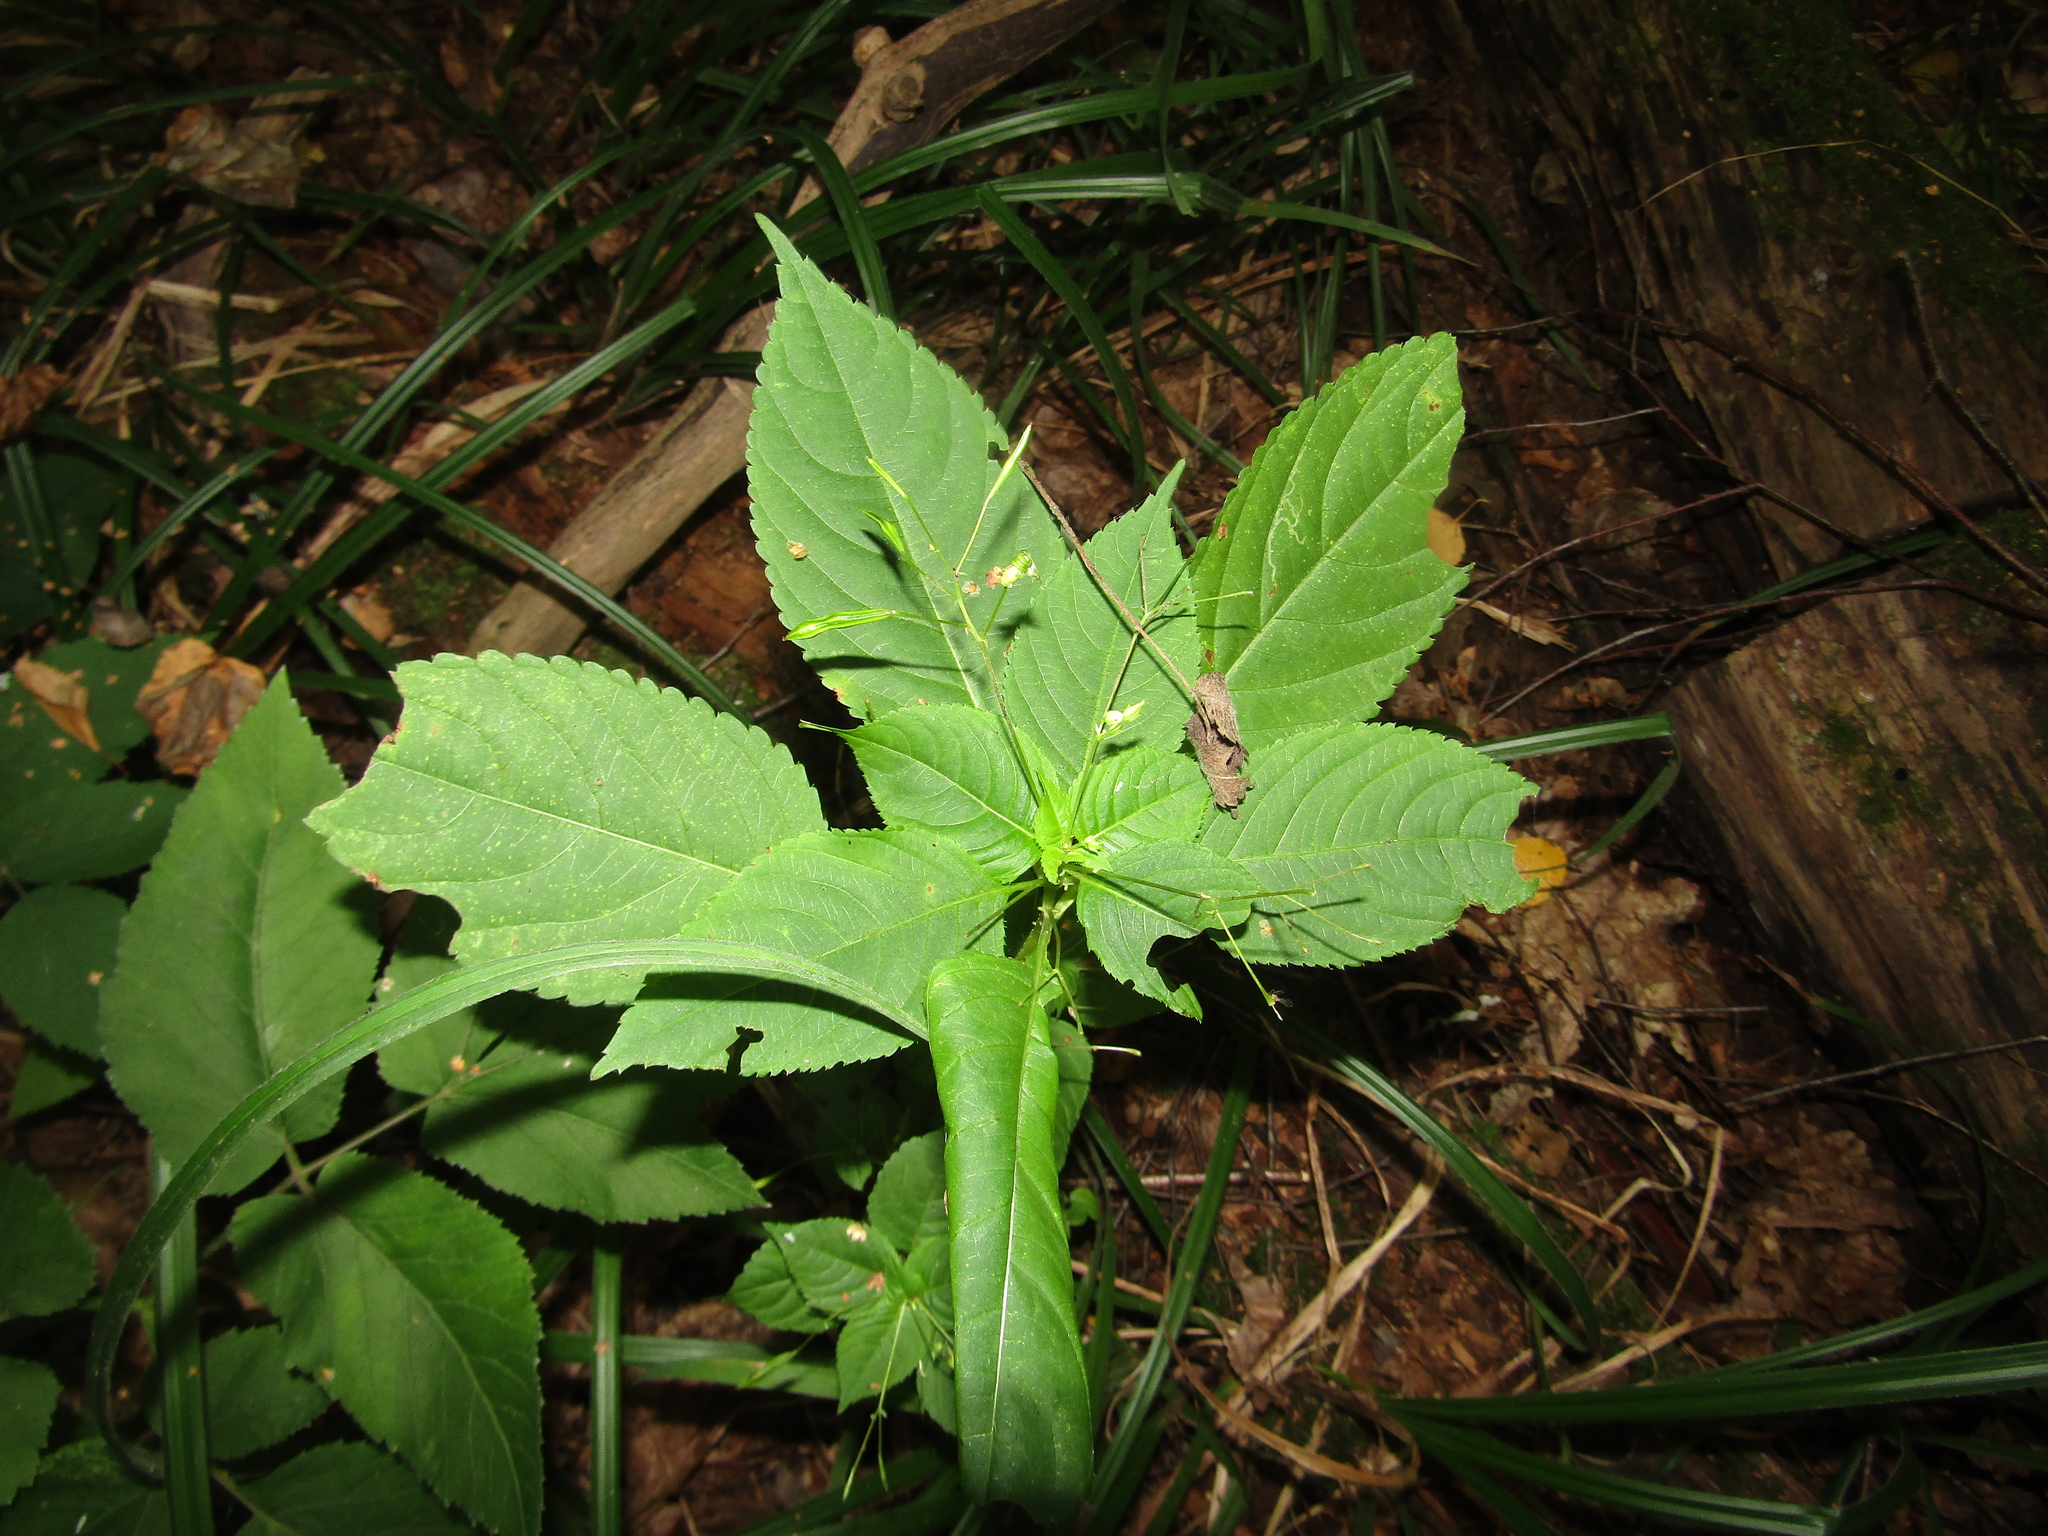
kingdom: Plantae
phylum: Tracheophyta
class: Magnoliopsida
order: Ericales
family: Balsaminaceae
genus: Impatiens
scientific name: Impatiens parviflora
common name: Small balsam
